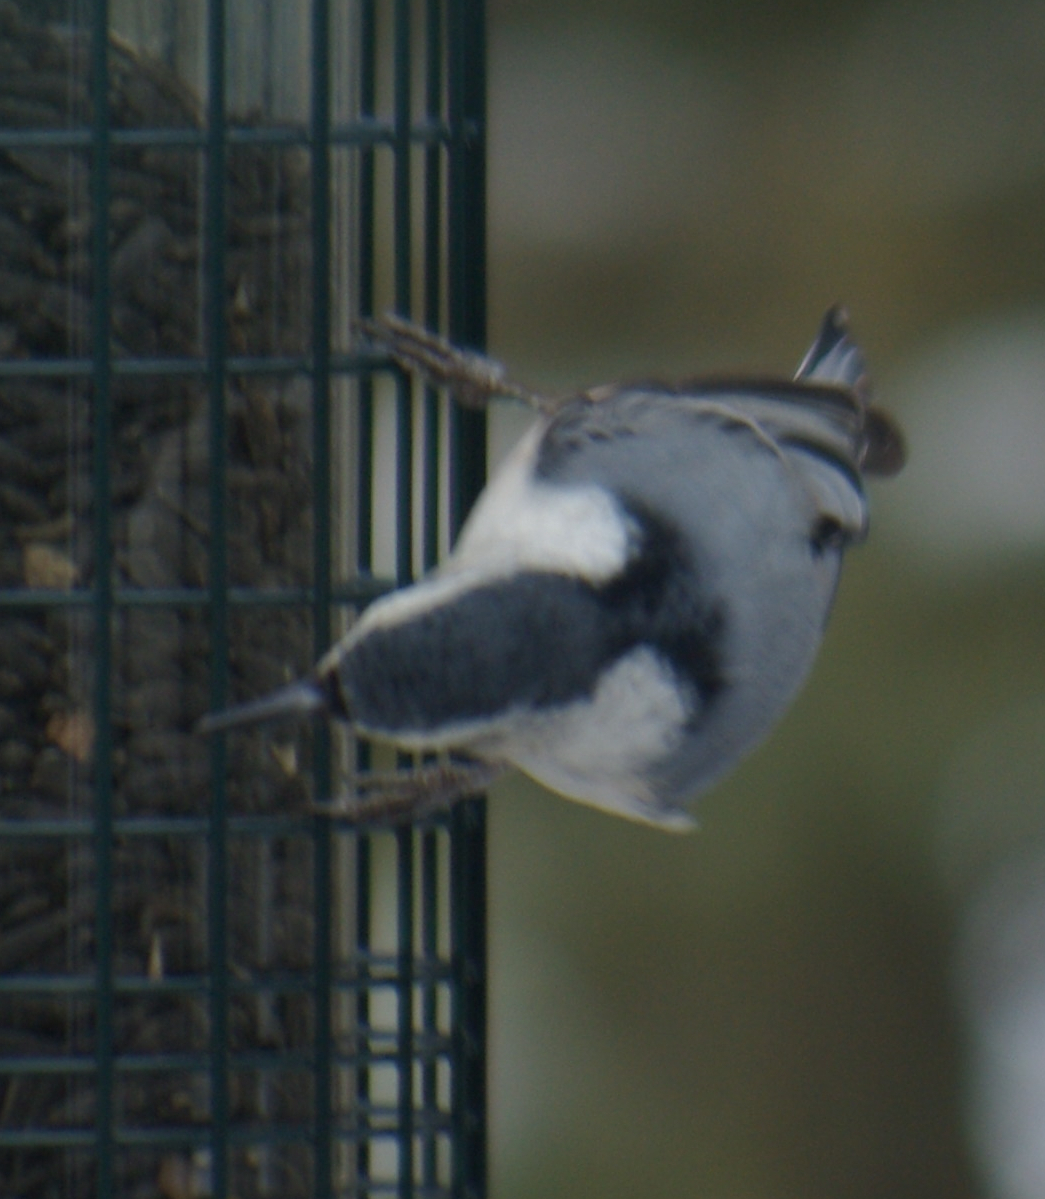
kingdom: Animalia
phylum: Chordata
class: Aves
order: Passeriformes
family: Sittidae
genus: Sitta
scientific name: Sitta carolinensis
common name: White-breasted nuthatch
